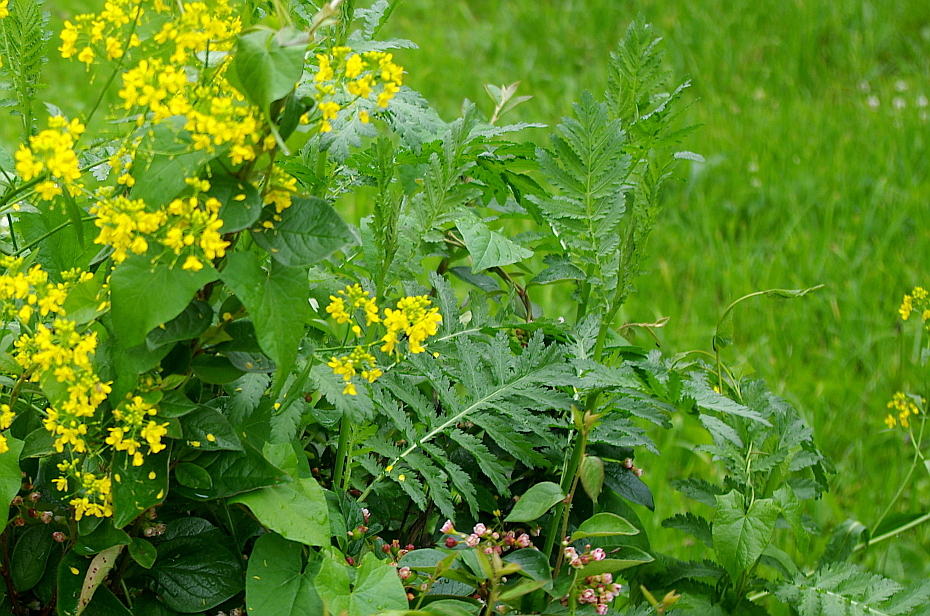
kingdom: Plantae
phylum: Tracheophyta
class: Magnoliopsida
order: Asterales
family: Asteraceae
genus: Tanacetum
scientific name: Tanacetum vulgare
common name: Common tansy
